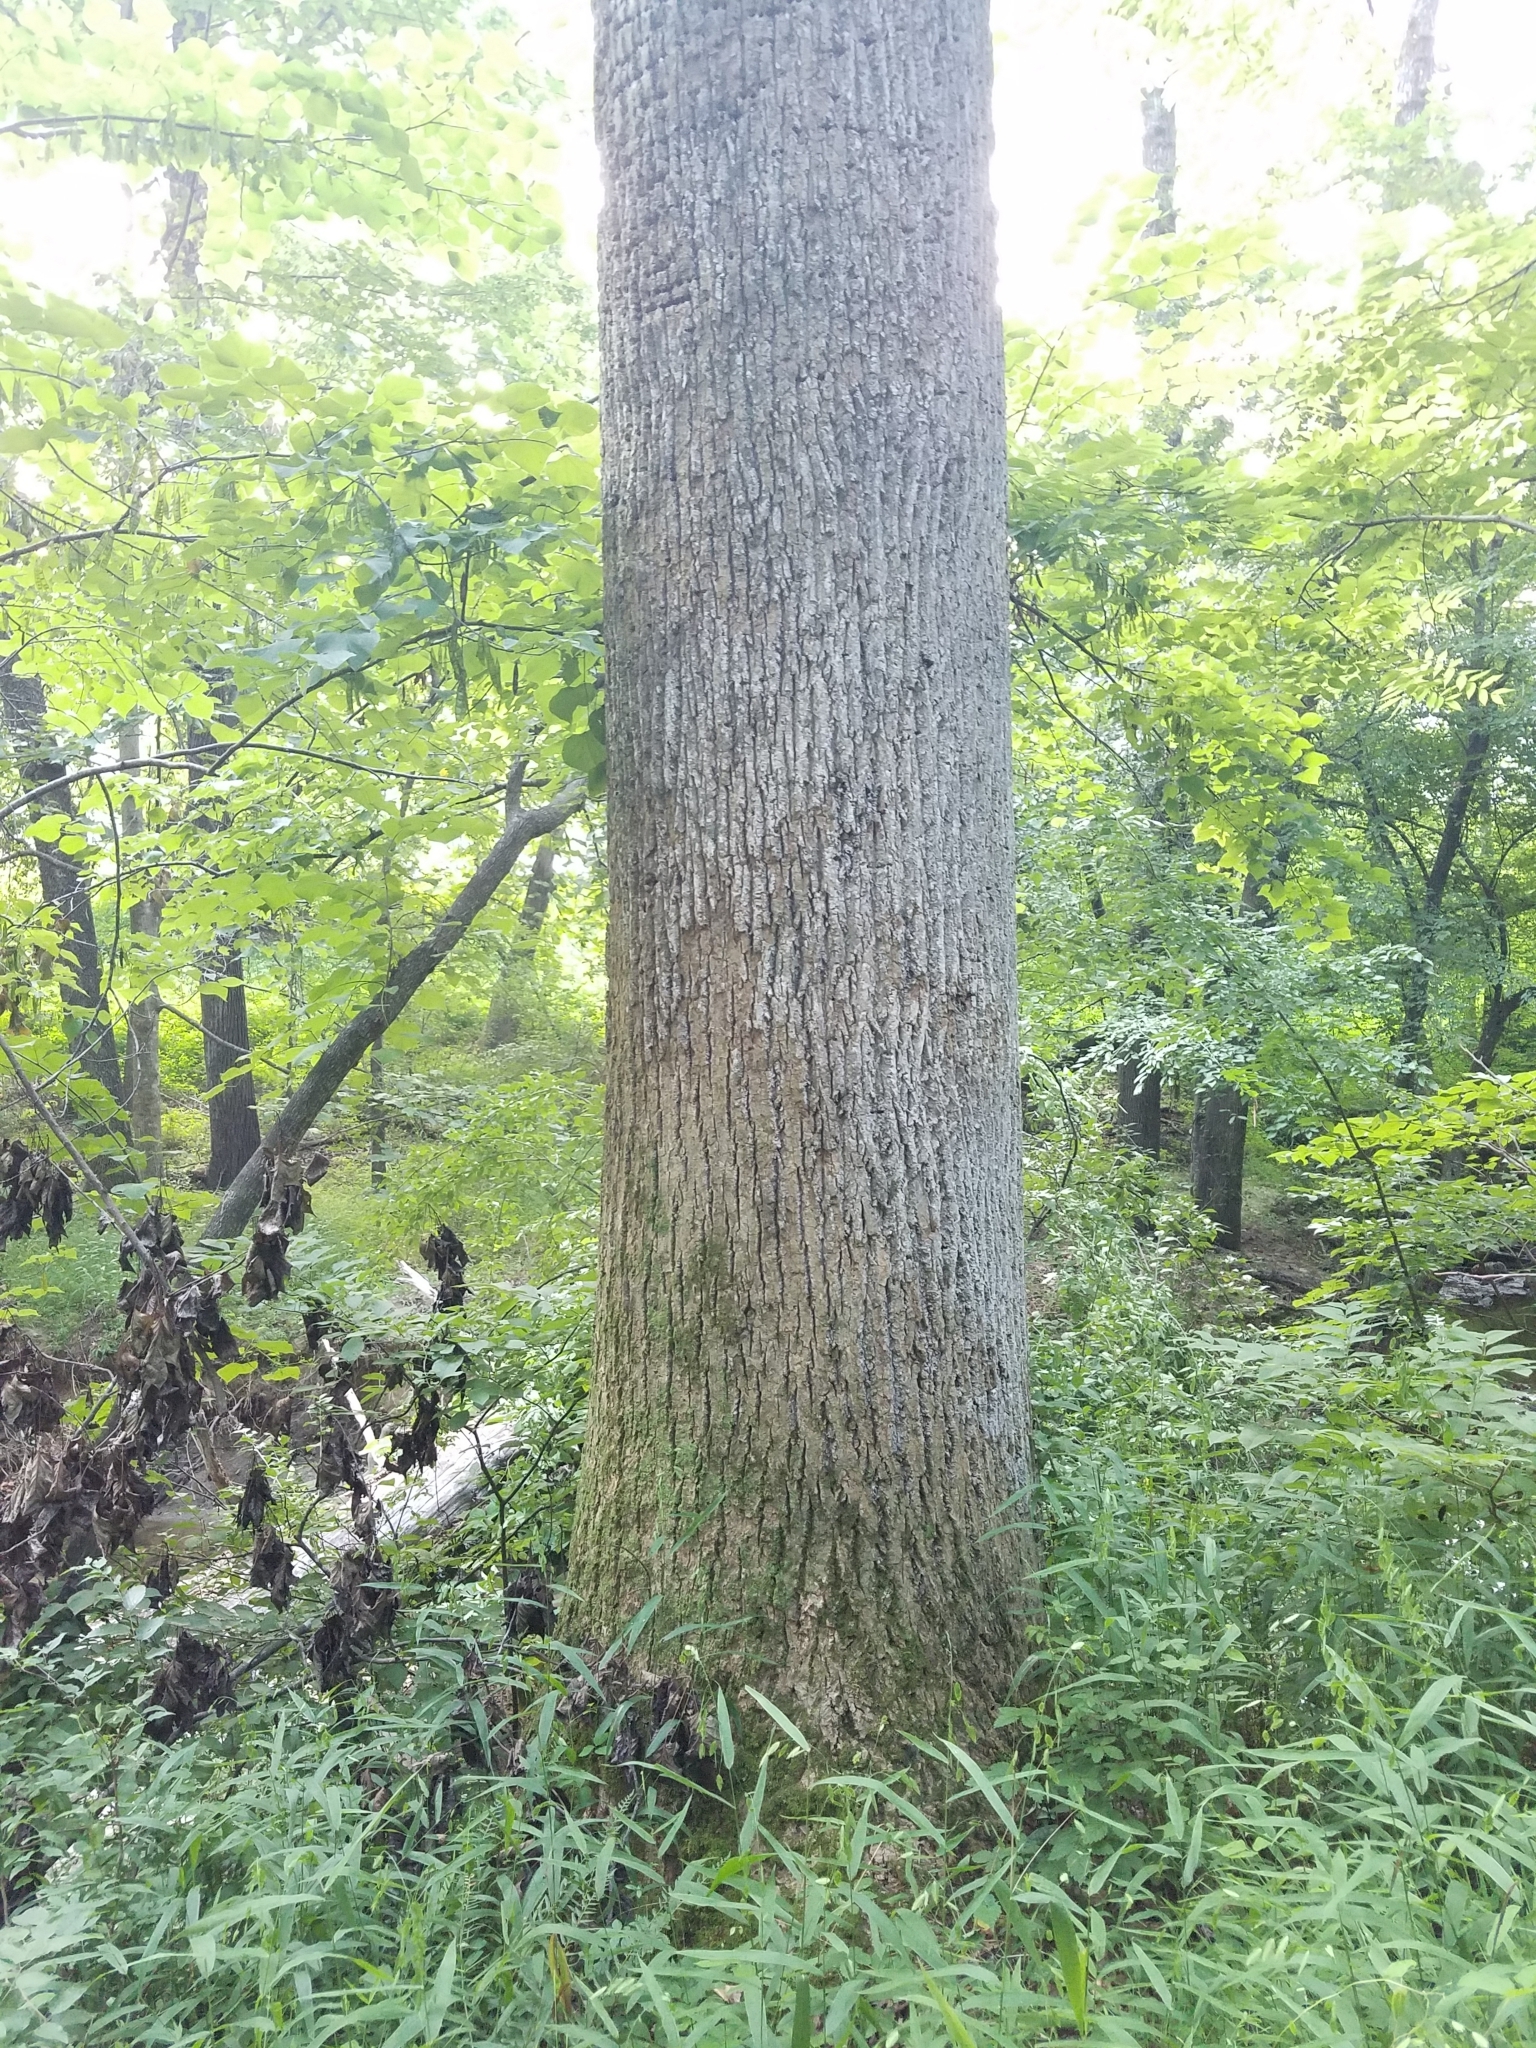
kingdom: Plantae
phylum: Tracheophyta
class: Magnoliopsida
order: Magnoliales
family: Magnoliaceae
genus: Liriodendron
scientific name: Liriodendron tulipifera
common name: Tulip tree
